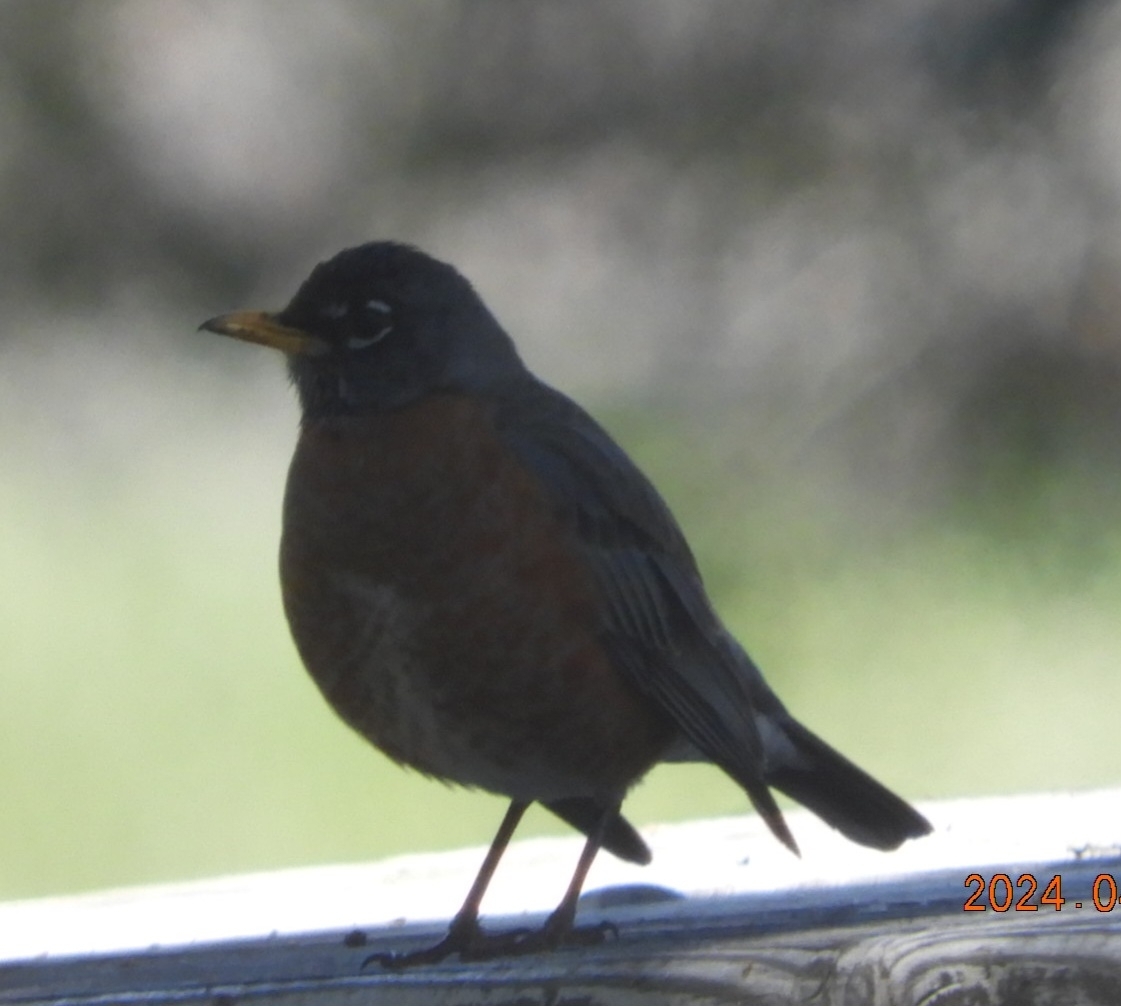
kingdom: Animalia
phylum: Chordata
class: Aves
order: Passeriformes
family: Turdidae
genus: Turdus
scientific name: Turdus migratorius
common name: American robin
